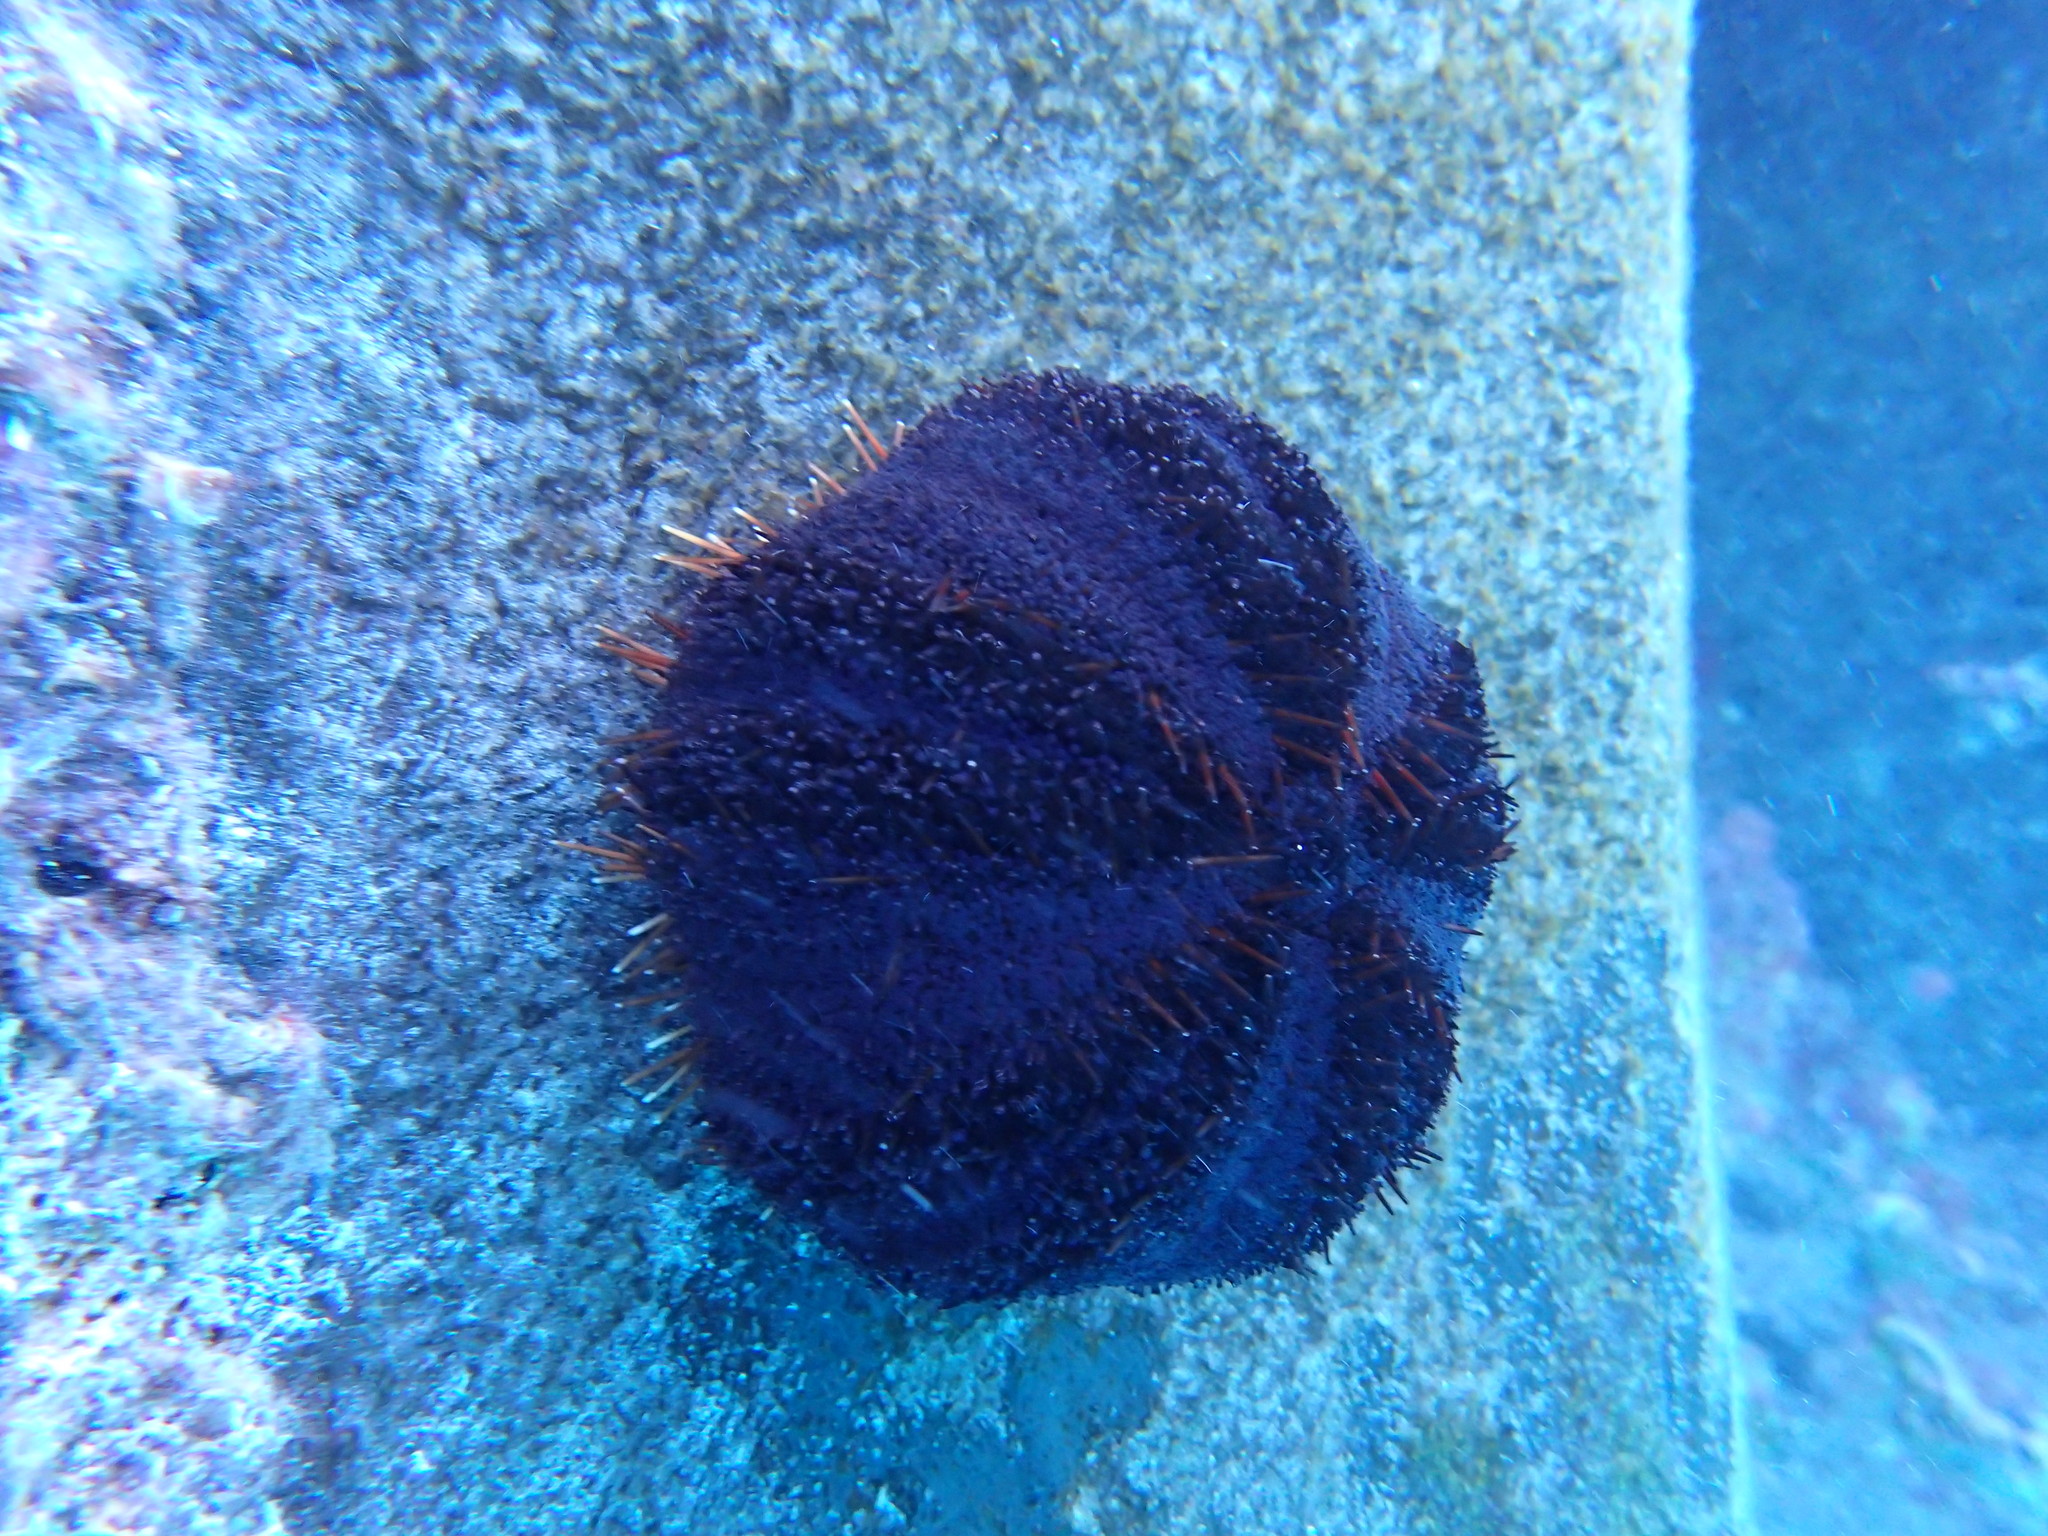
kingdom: Animalia
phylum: Echinodermata
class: Echinoidea
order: Camarodonta
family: Toxopneustidae
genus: Tripneustes
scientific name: Tripneustes gratilla
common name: Bischofsmützenseeigel
